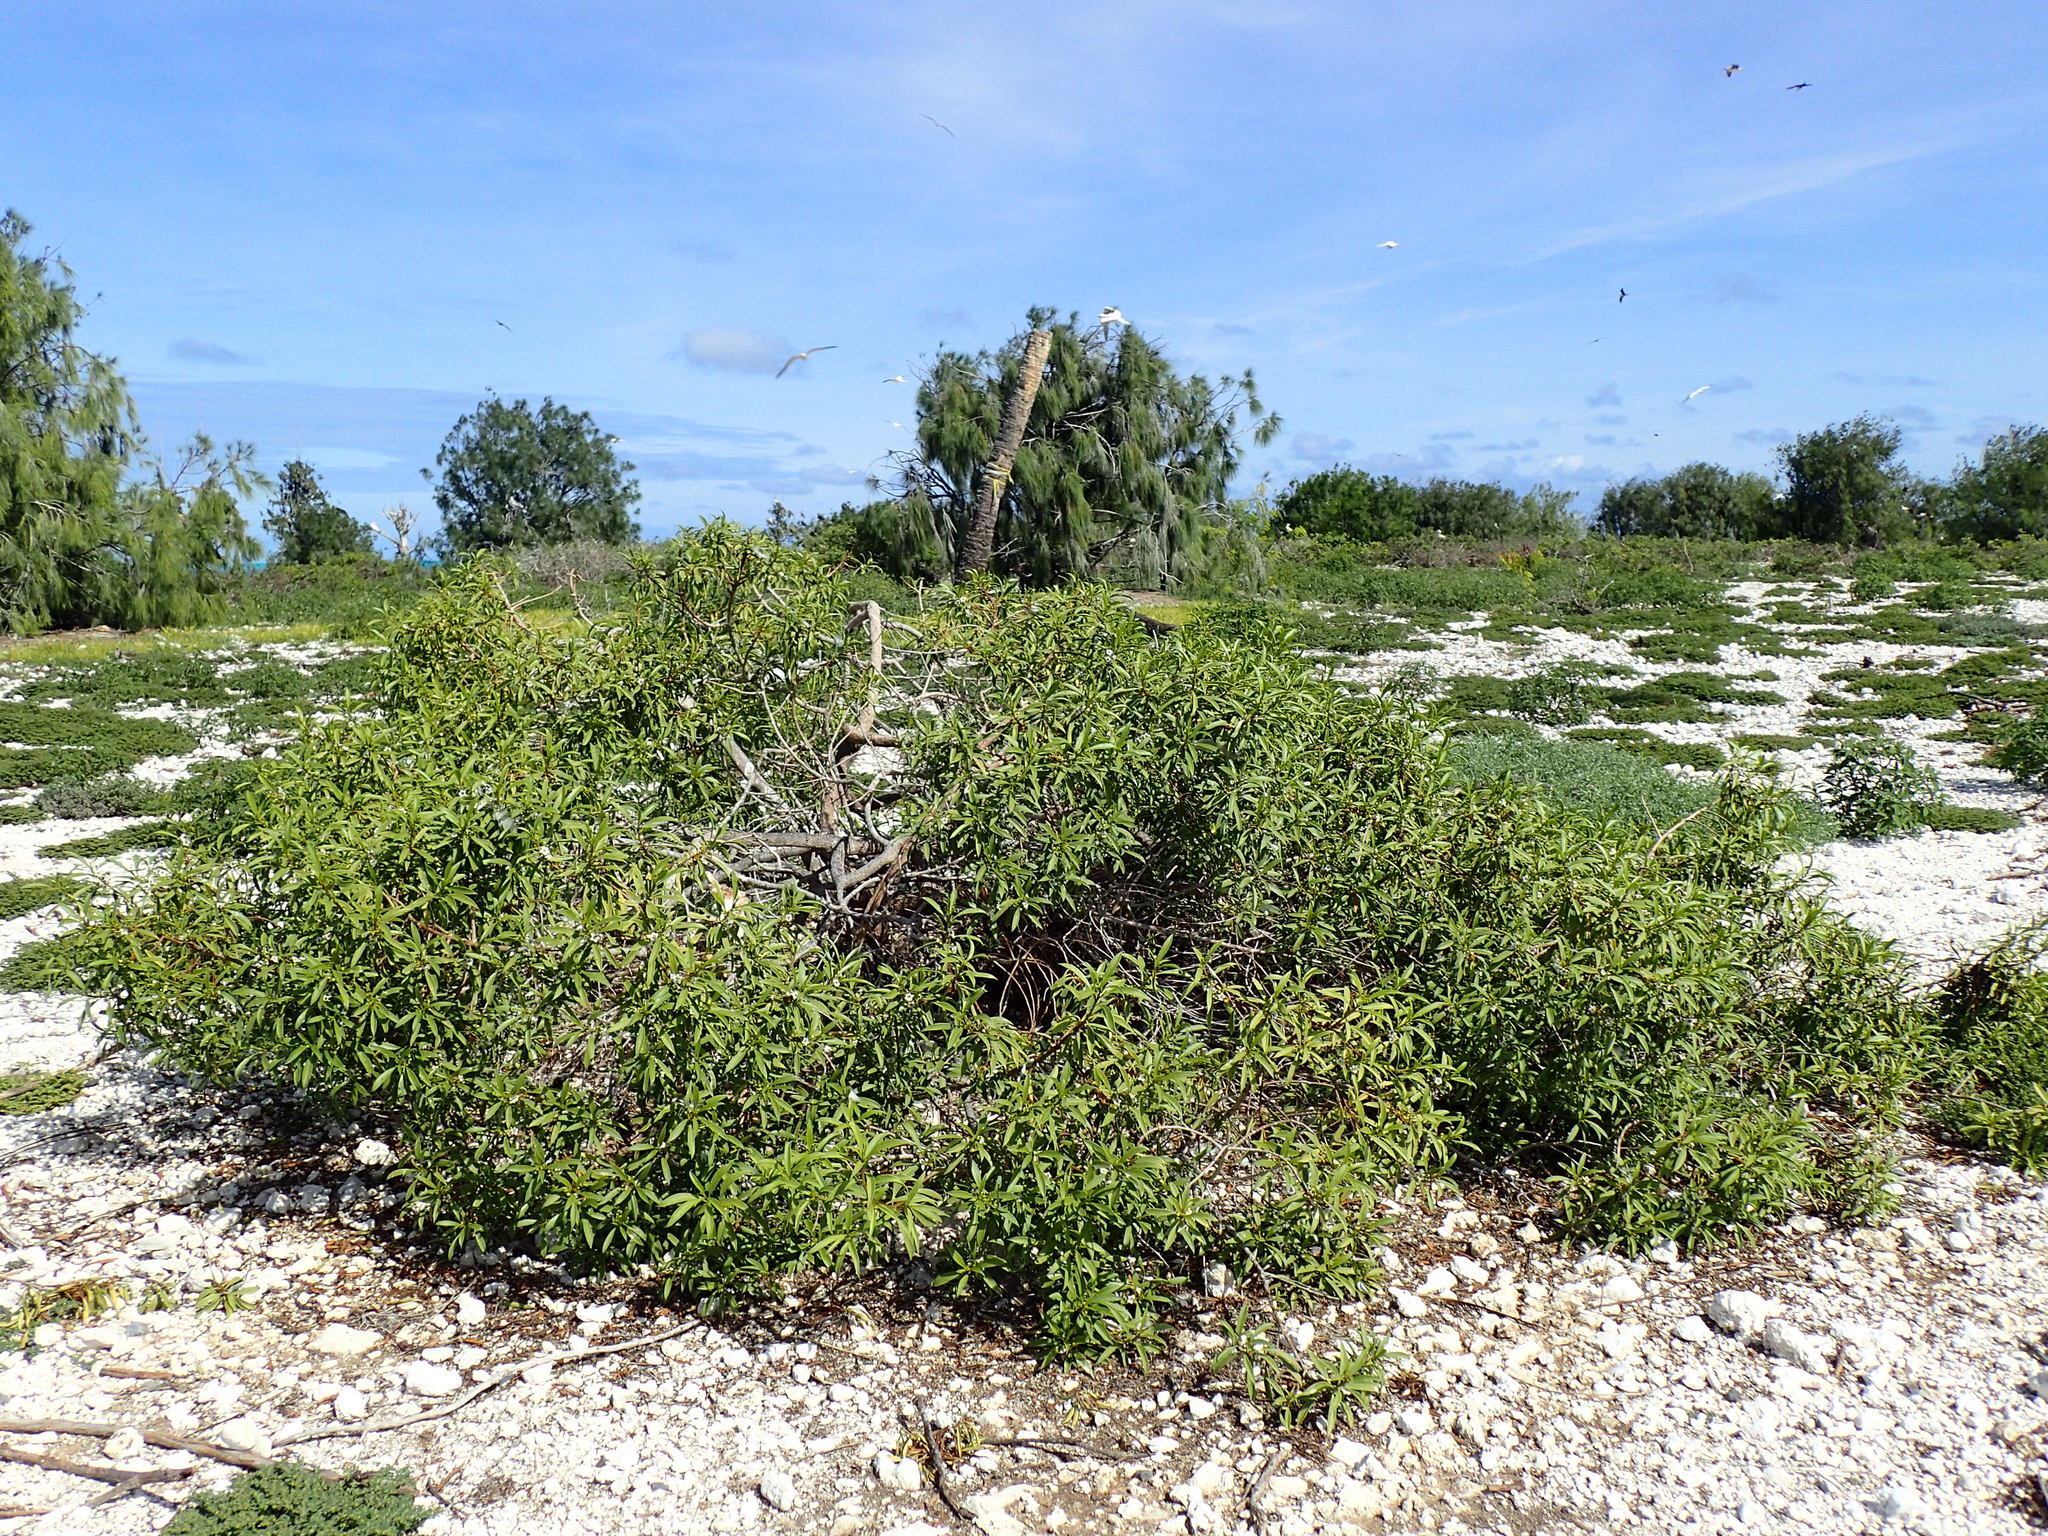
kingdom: Plantae
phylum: Tracheophyta
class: Magnoliopsida
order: Lamiales
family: Scrophulariaceae
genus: Myoporum
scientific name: Myoporum sandwicense
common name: Bastard-sandalwood
